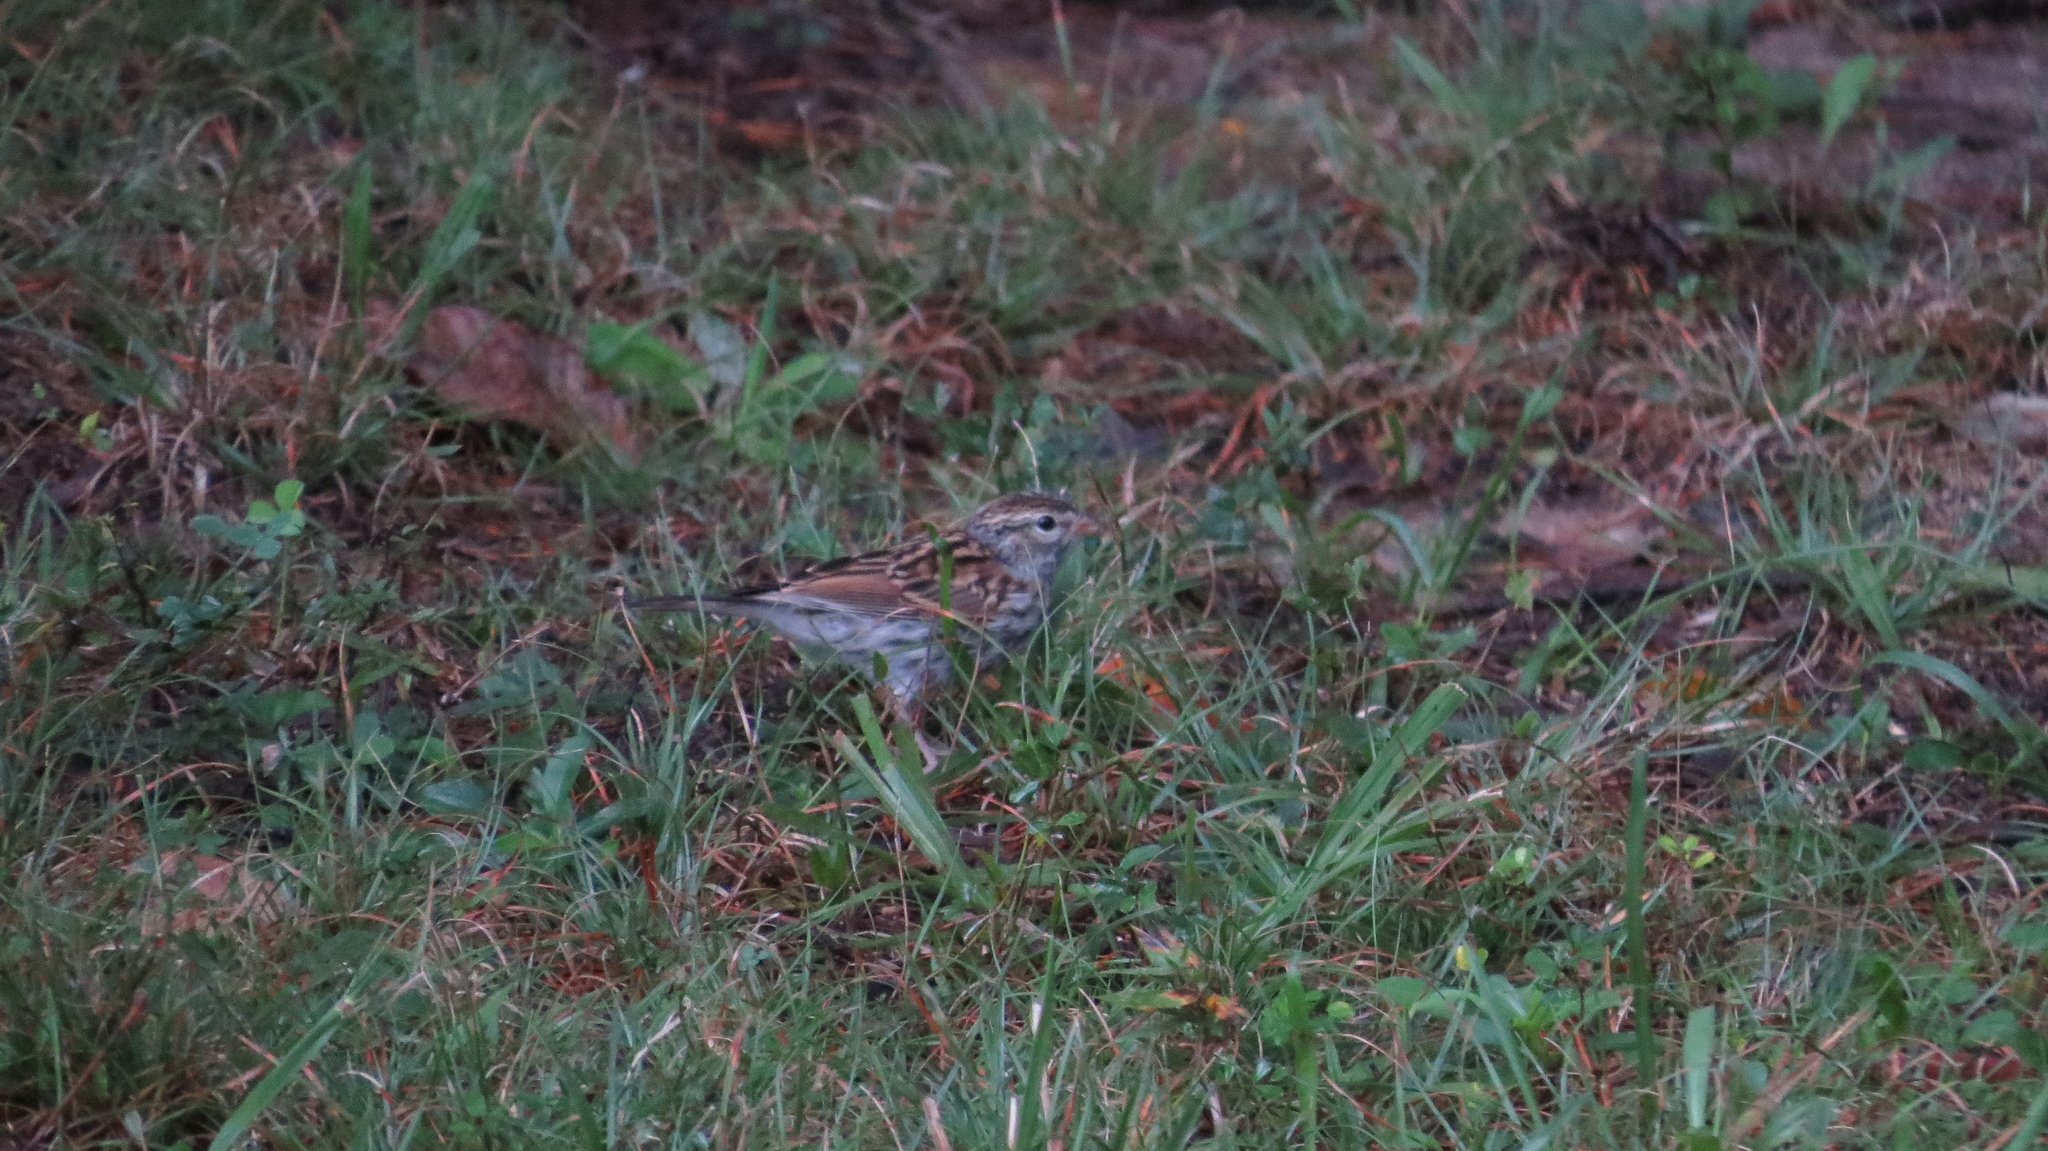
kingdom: Animalia
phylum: Chordata
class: Aves
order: Passeriformes
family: Passerellidae
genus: Spizella
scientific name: Spizella passerina
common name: Chipping sparrow
